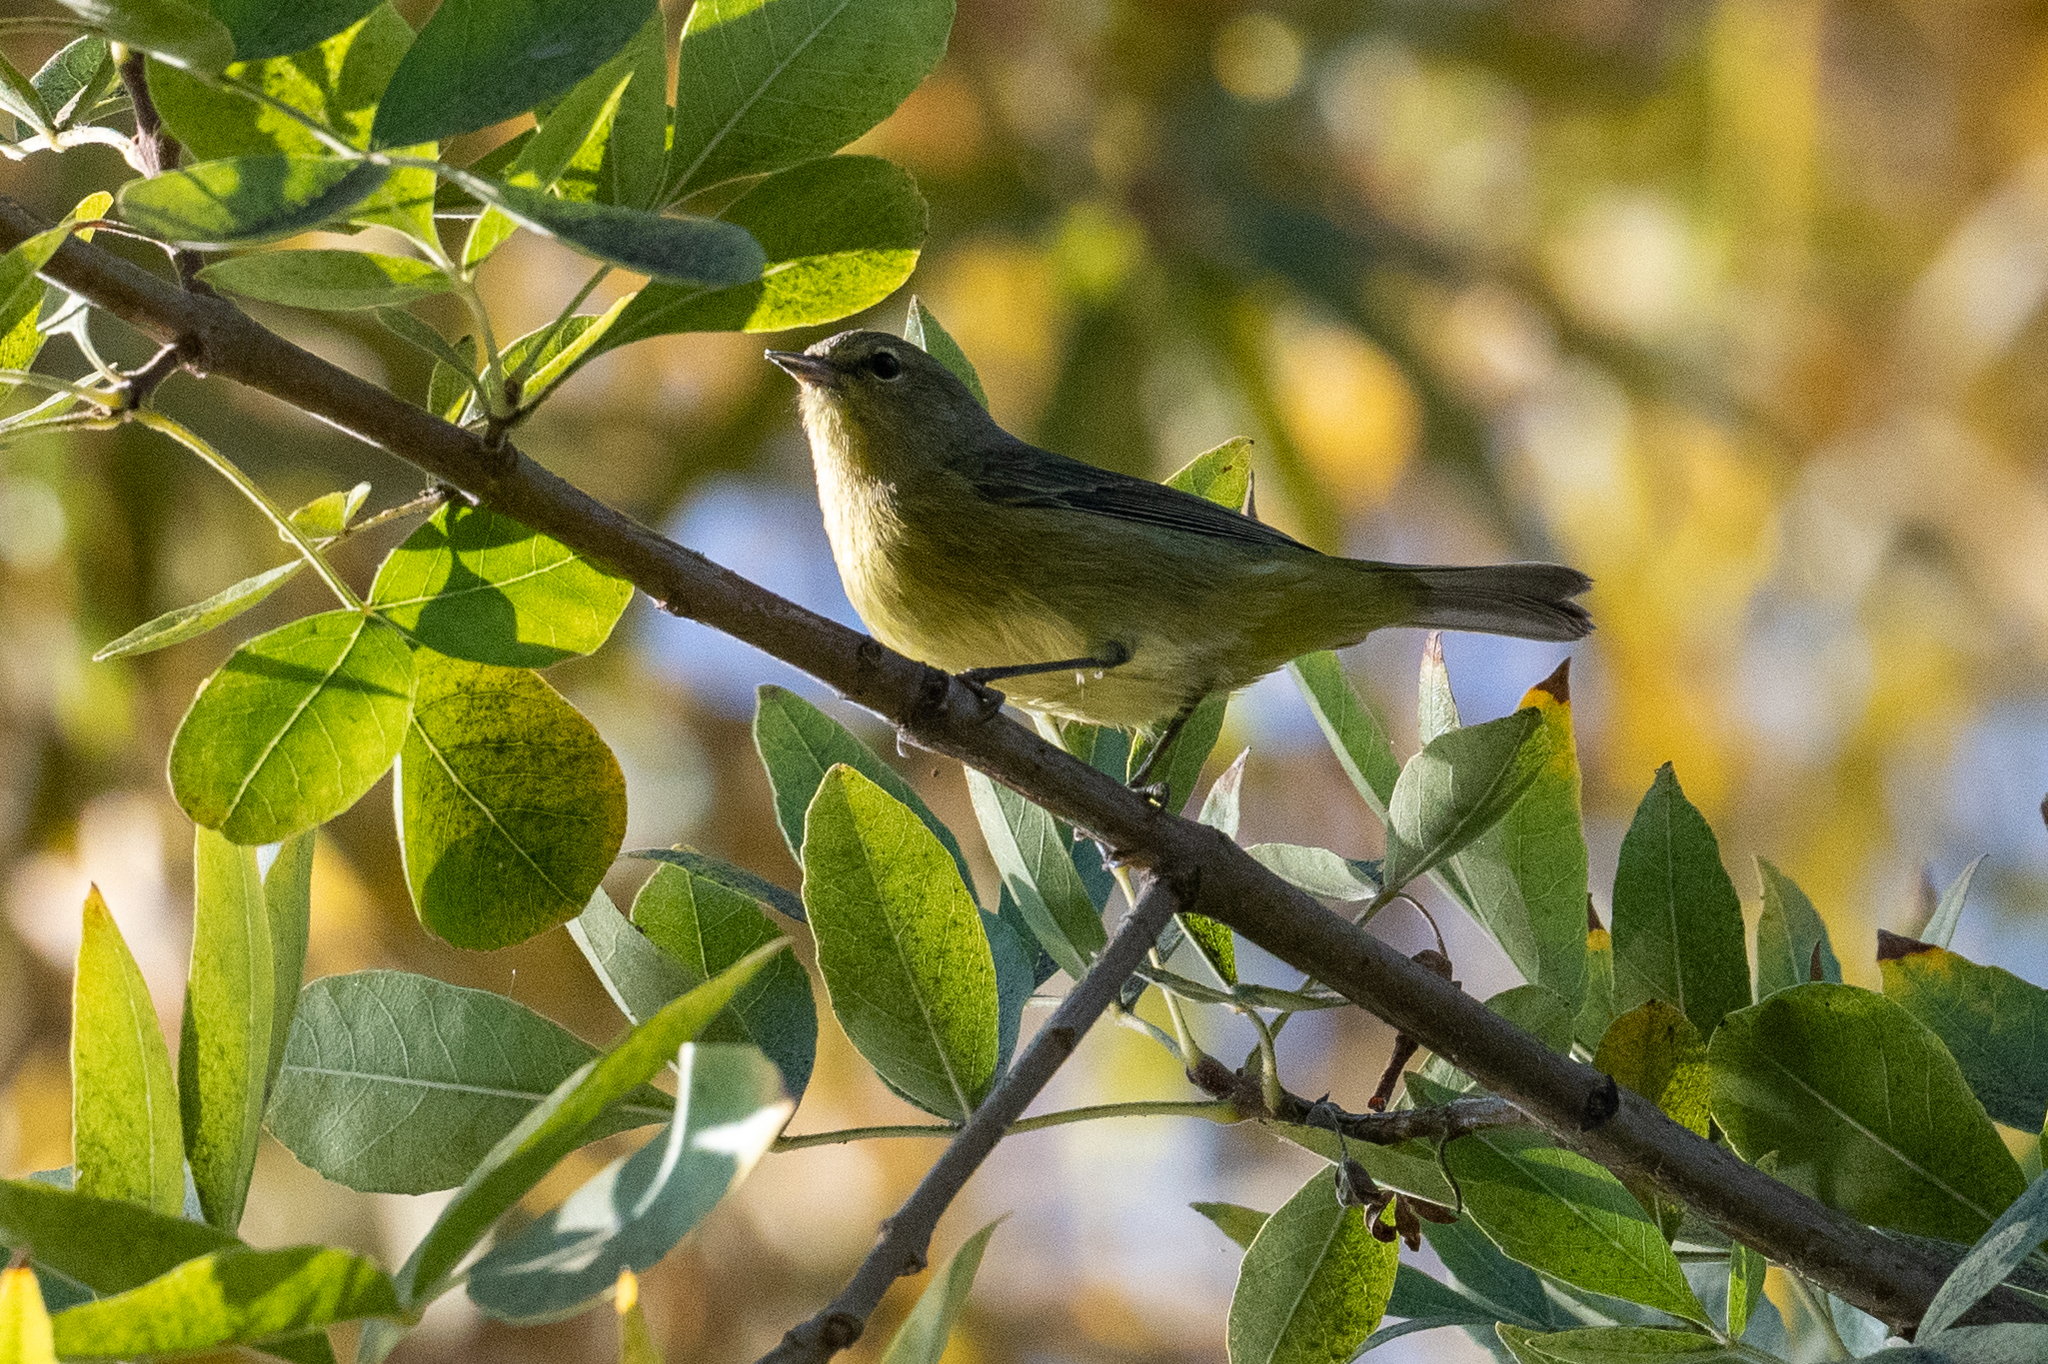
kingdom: Animalia
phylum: Chordata
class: Aves
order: Passeriformes
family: Parulidae
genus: Leiothlypis
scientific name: Leiothlypis celata
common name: Orange-crowned warbler
